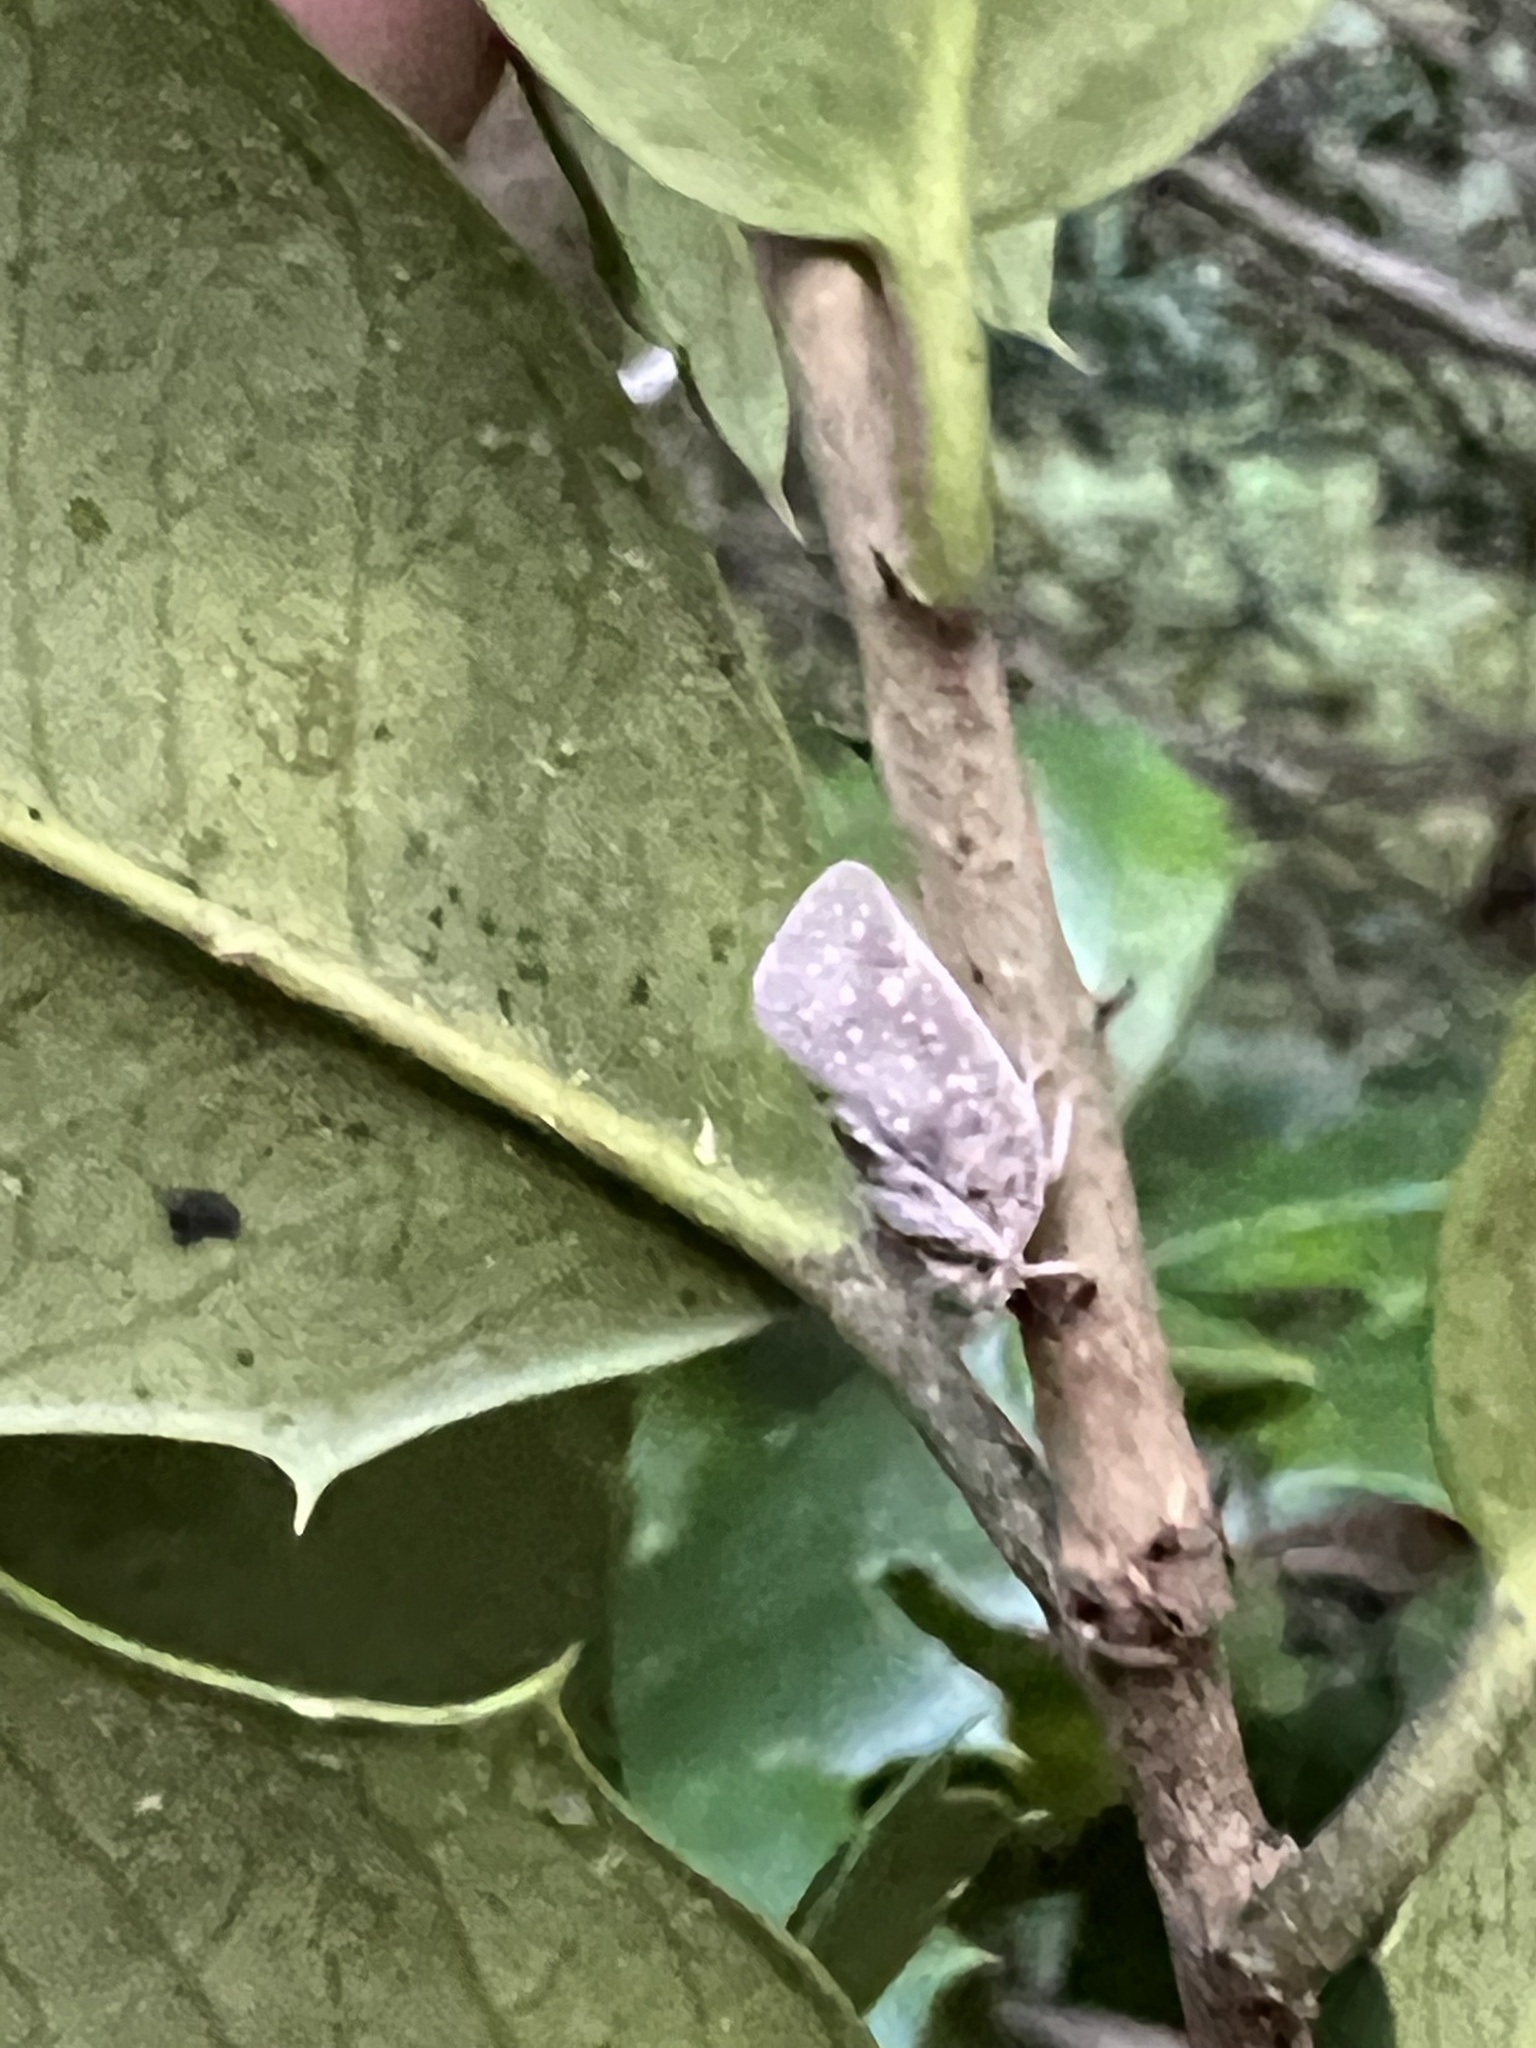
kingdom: Animalia
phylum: Arthropoda
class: Insecta
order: Hemiptera
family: Flatidae
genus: Metcalfa
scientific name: Metcalfa pruinosa
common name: Citrus flatid planthopper
